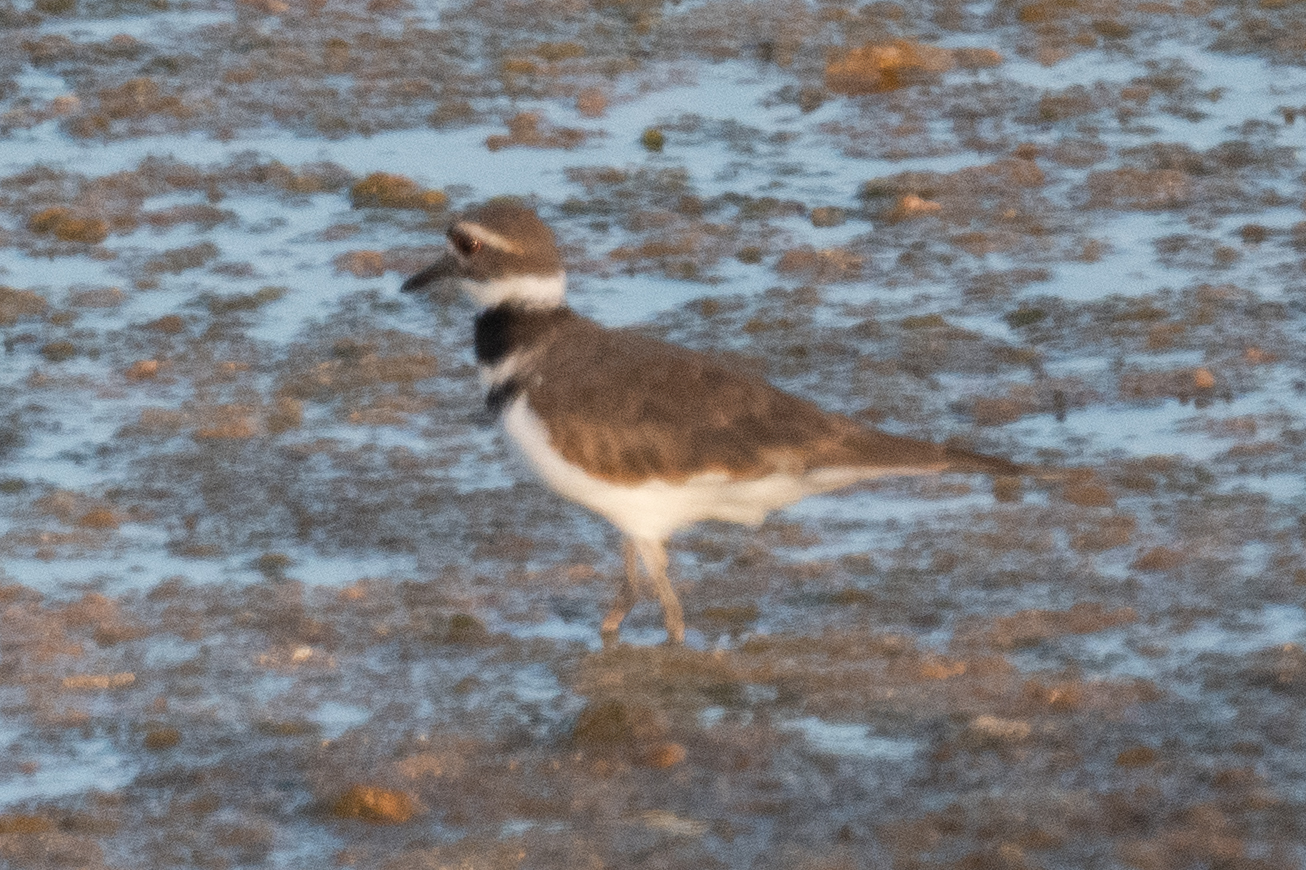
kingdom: Animalia
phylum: Chordata
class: Aves
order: Charadriiformes
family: Charadriidae
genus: Charadrius
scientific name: Charadrius vociferus
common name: Killdeer
